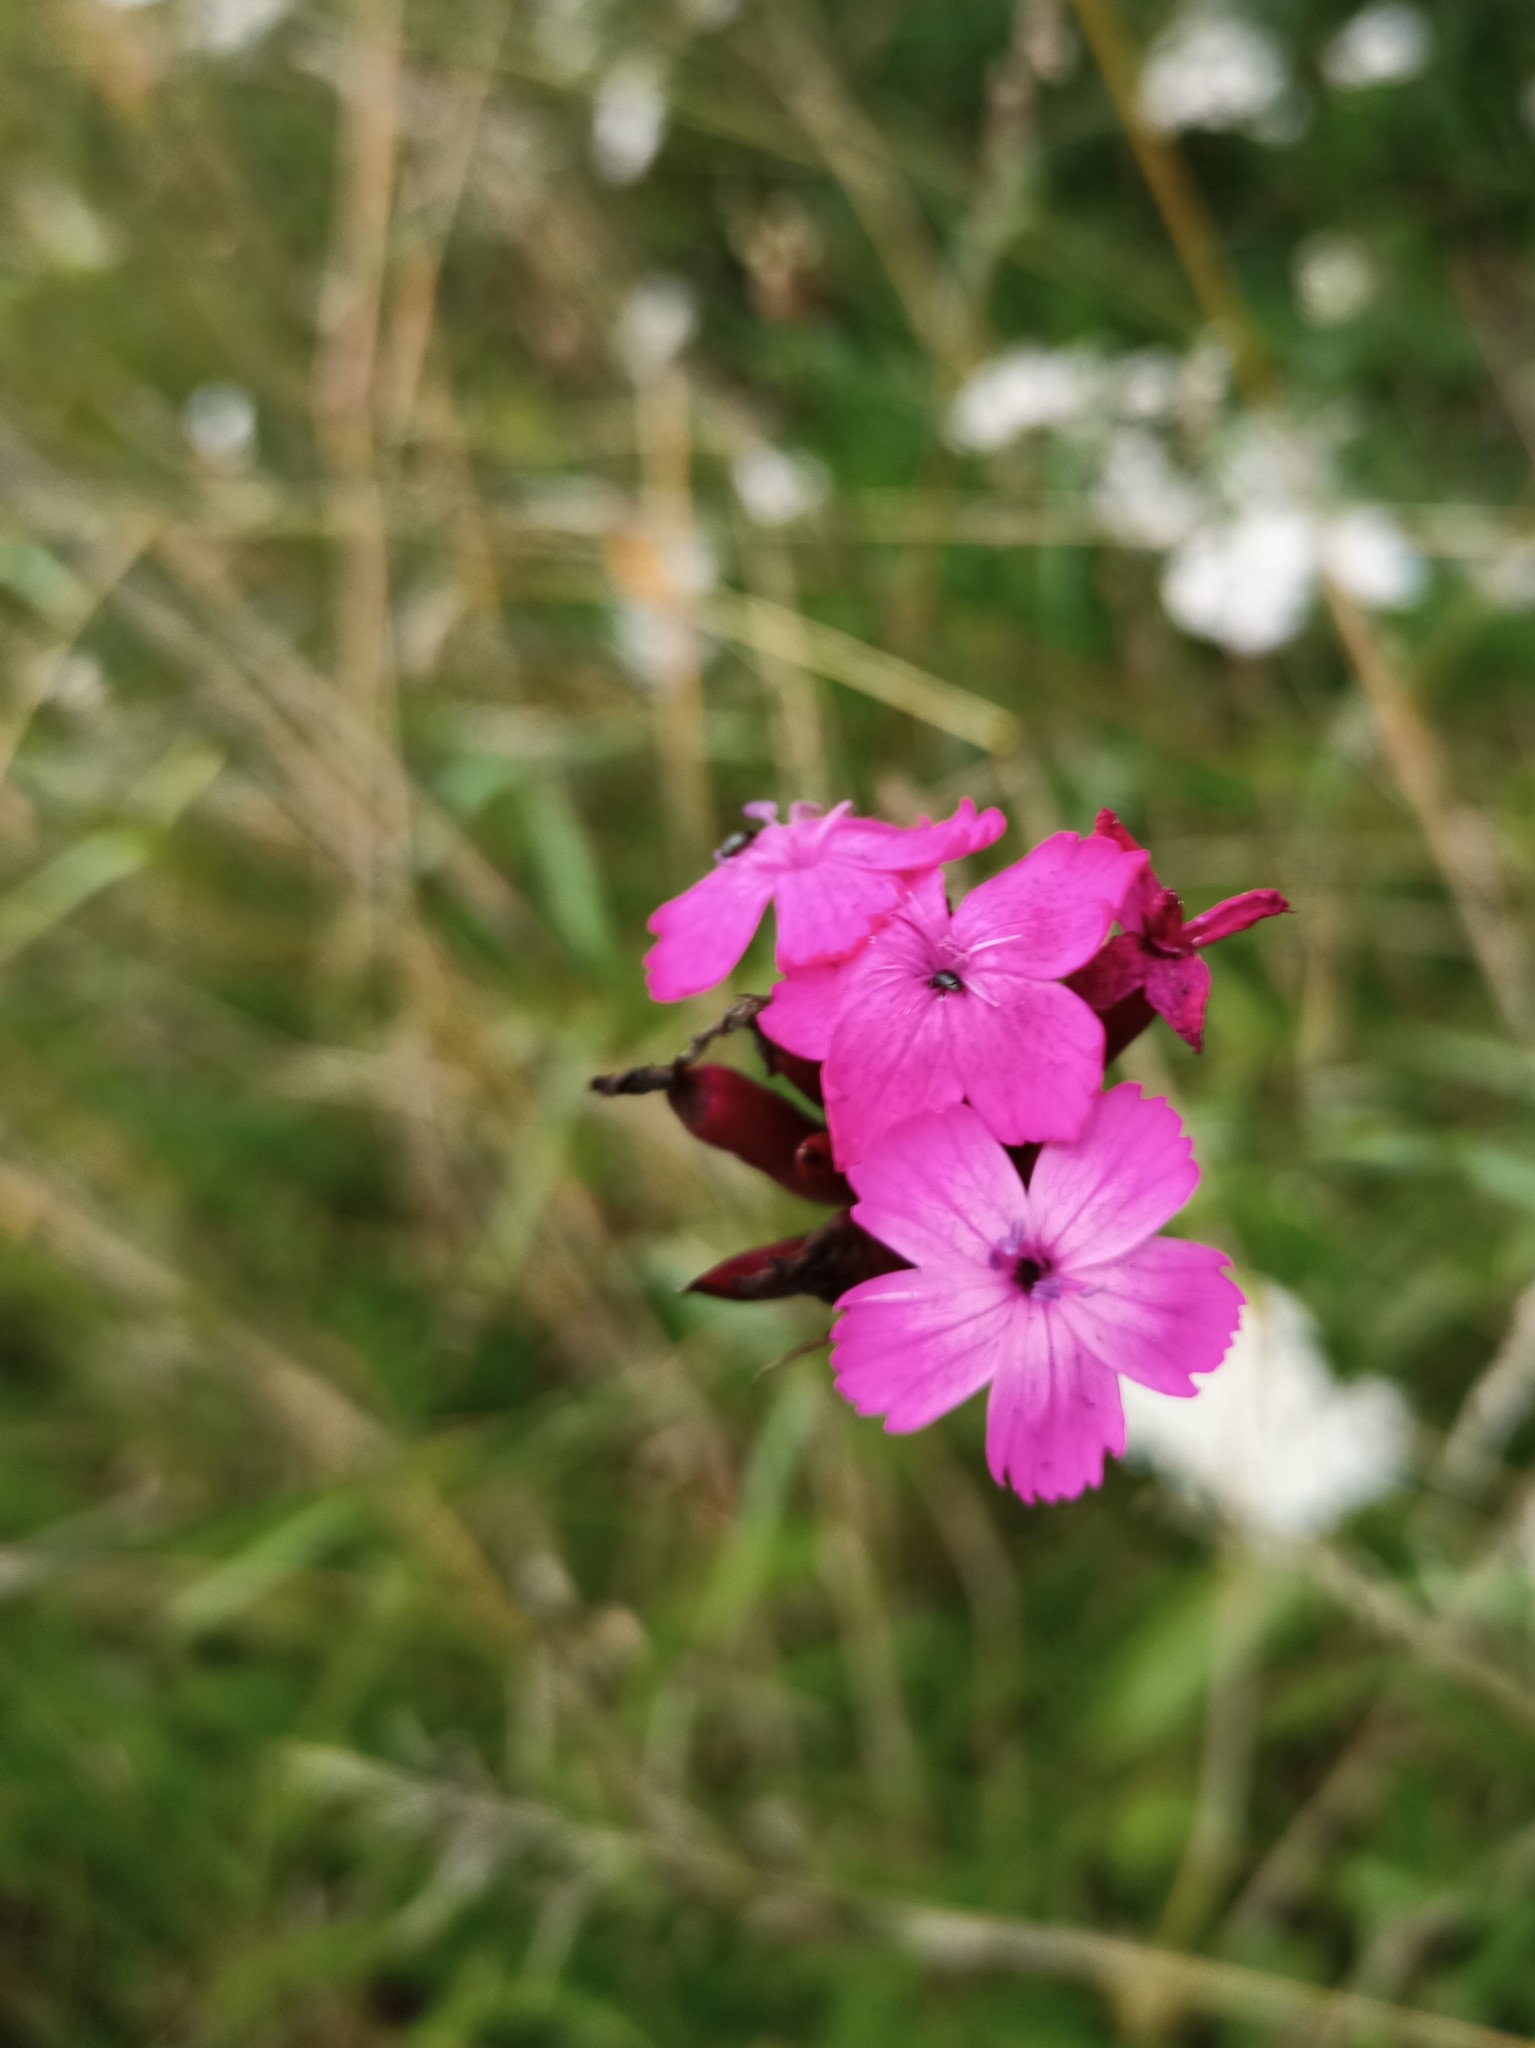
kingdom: Plantae
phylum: Tracheophyta
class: Magnoliopsida
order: Caryophyllales
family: Caryophyllaceae
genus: Dianthus
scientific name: Dianthus carthusianorum
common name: Carthusian pink
